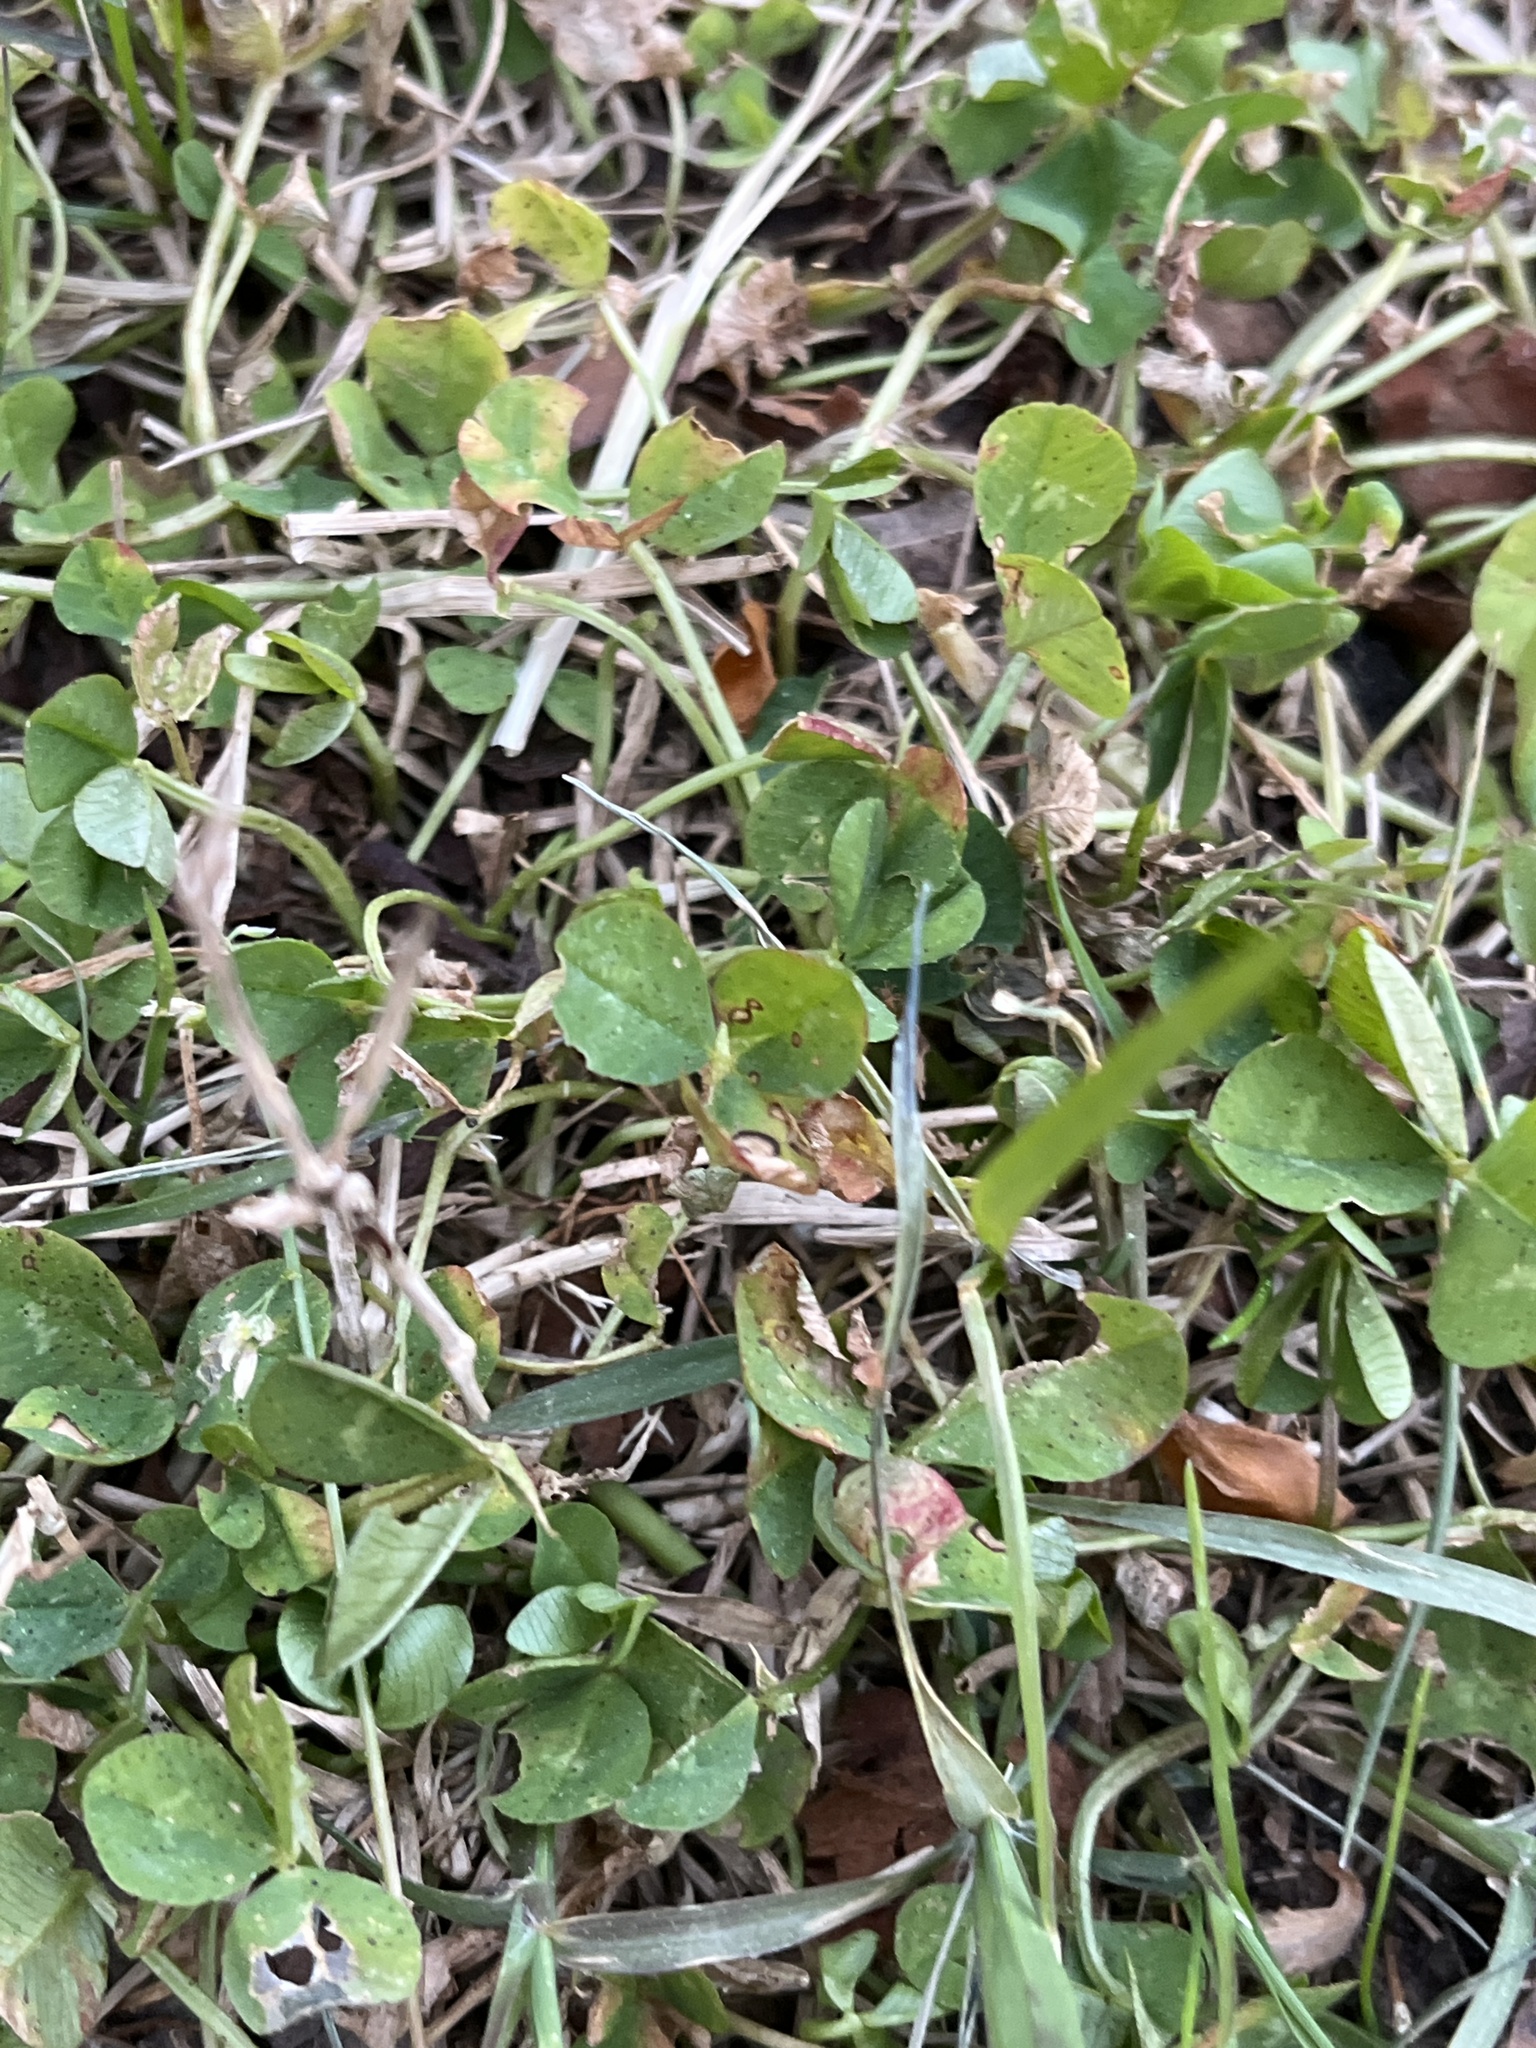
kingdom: Plantae
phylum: Tracheophyta
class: Magnoliopsida
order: Fabales
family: Fabaceae
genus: Trifolium
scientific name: Trifolium repens
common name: White clover
